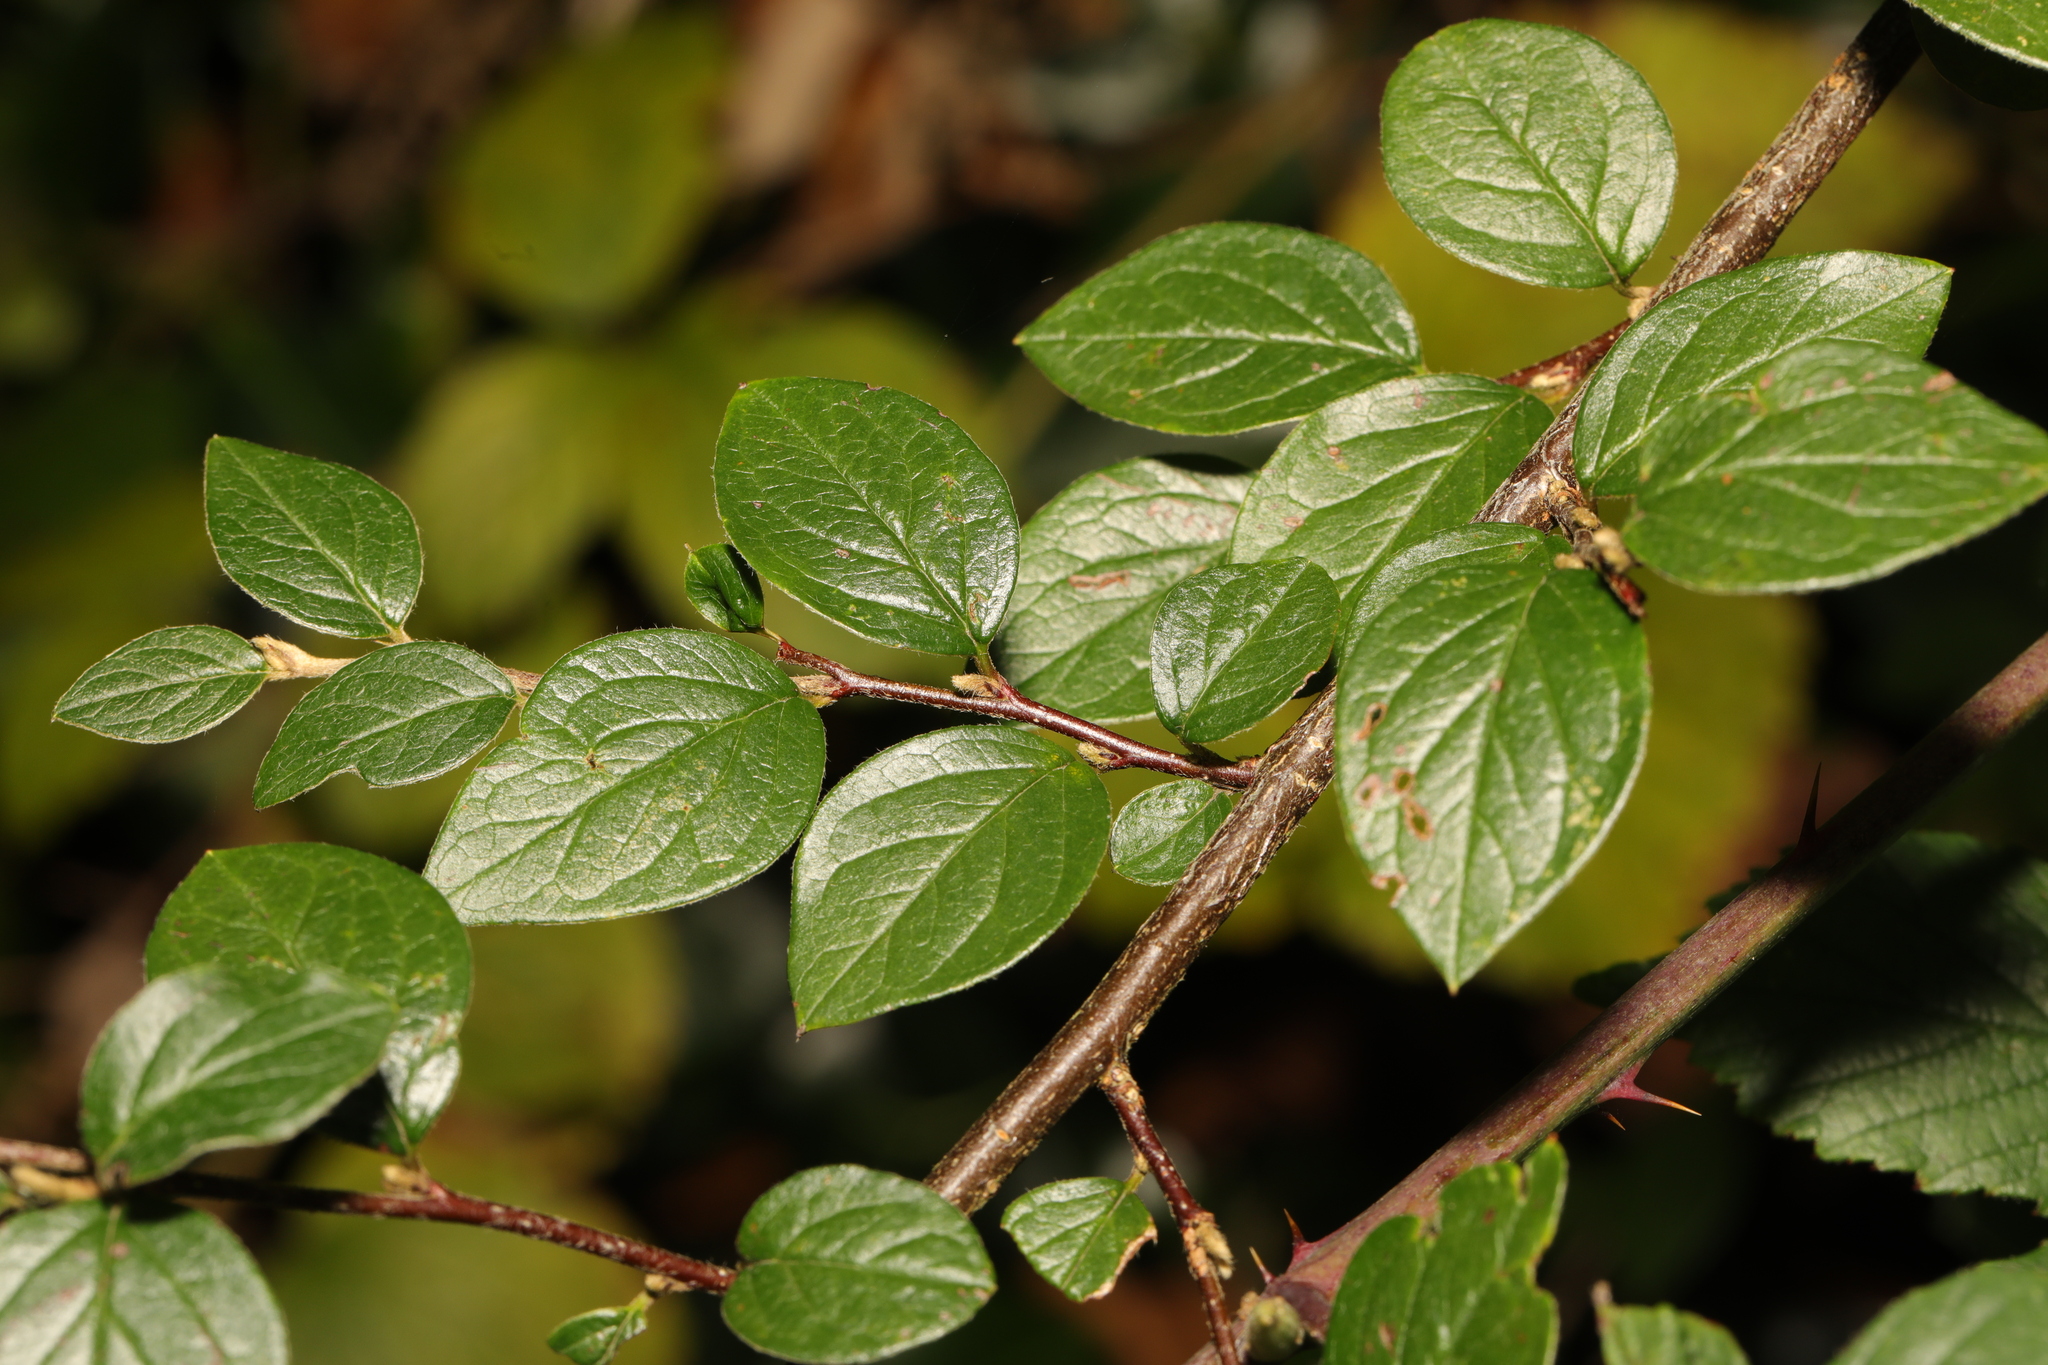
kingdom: Plantae
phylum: Tracheophyta
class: Magnoliopsida
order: Rosales
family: Rosaceae
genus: Cotoneaster
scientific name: Cotoneaster franchetii
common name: Franchet's cotoneaster
